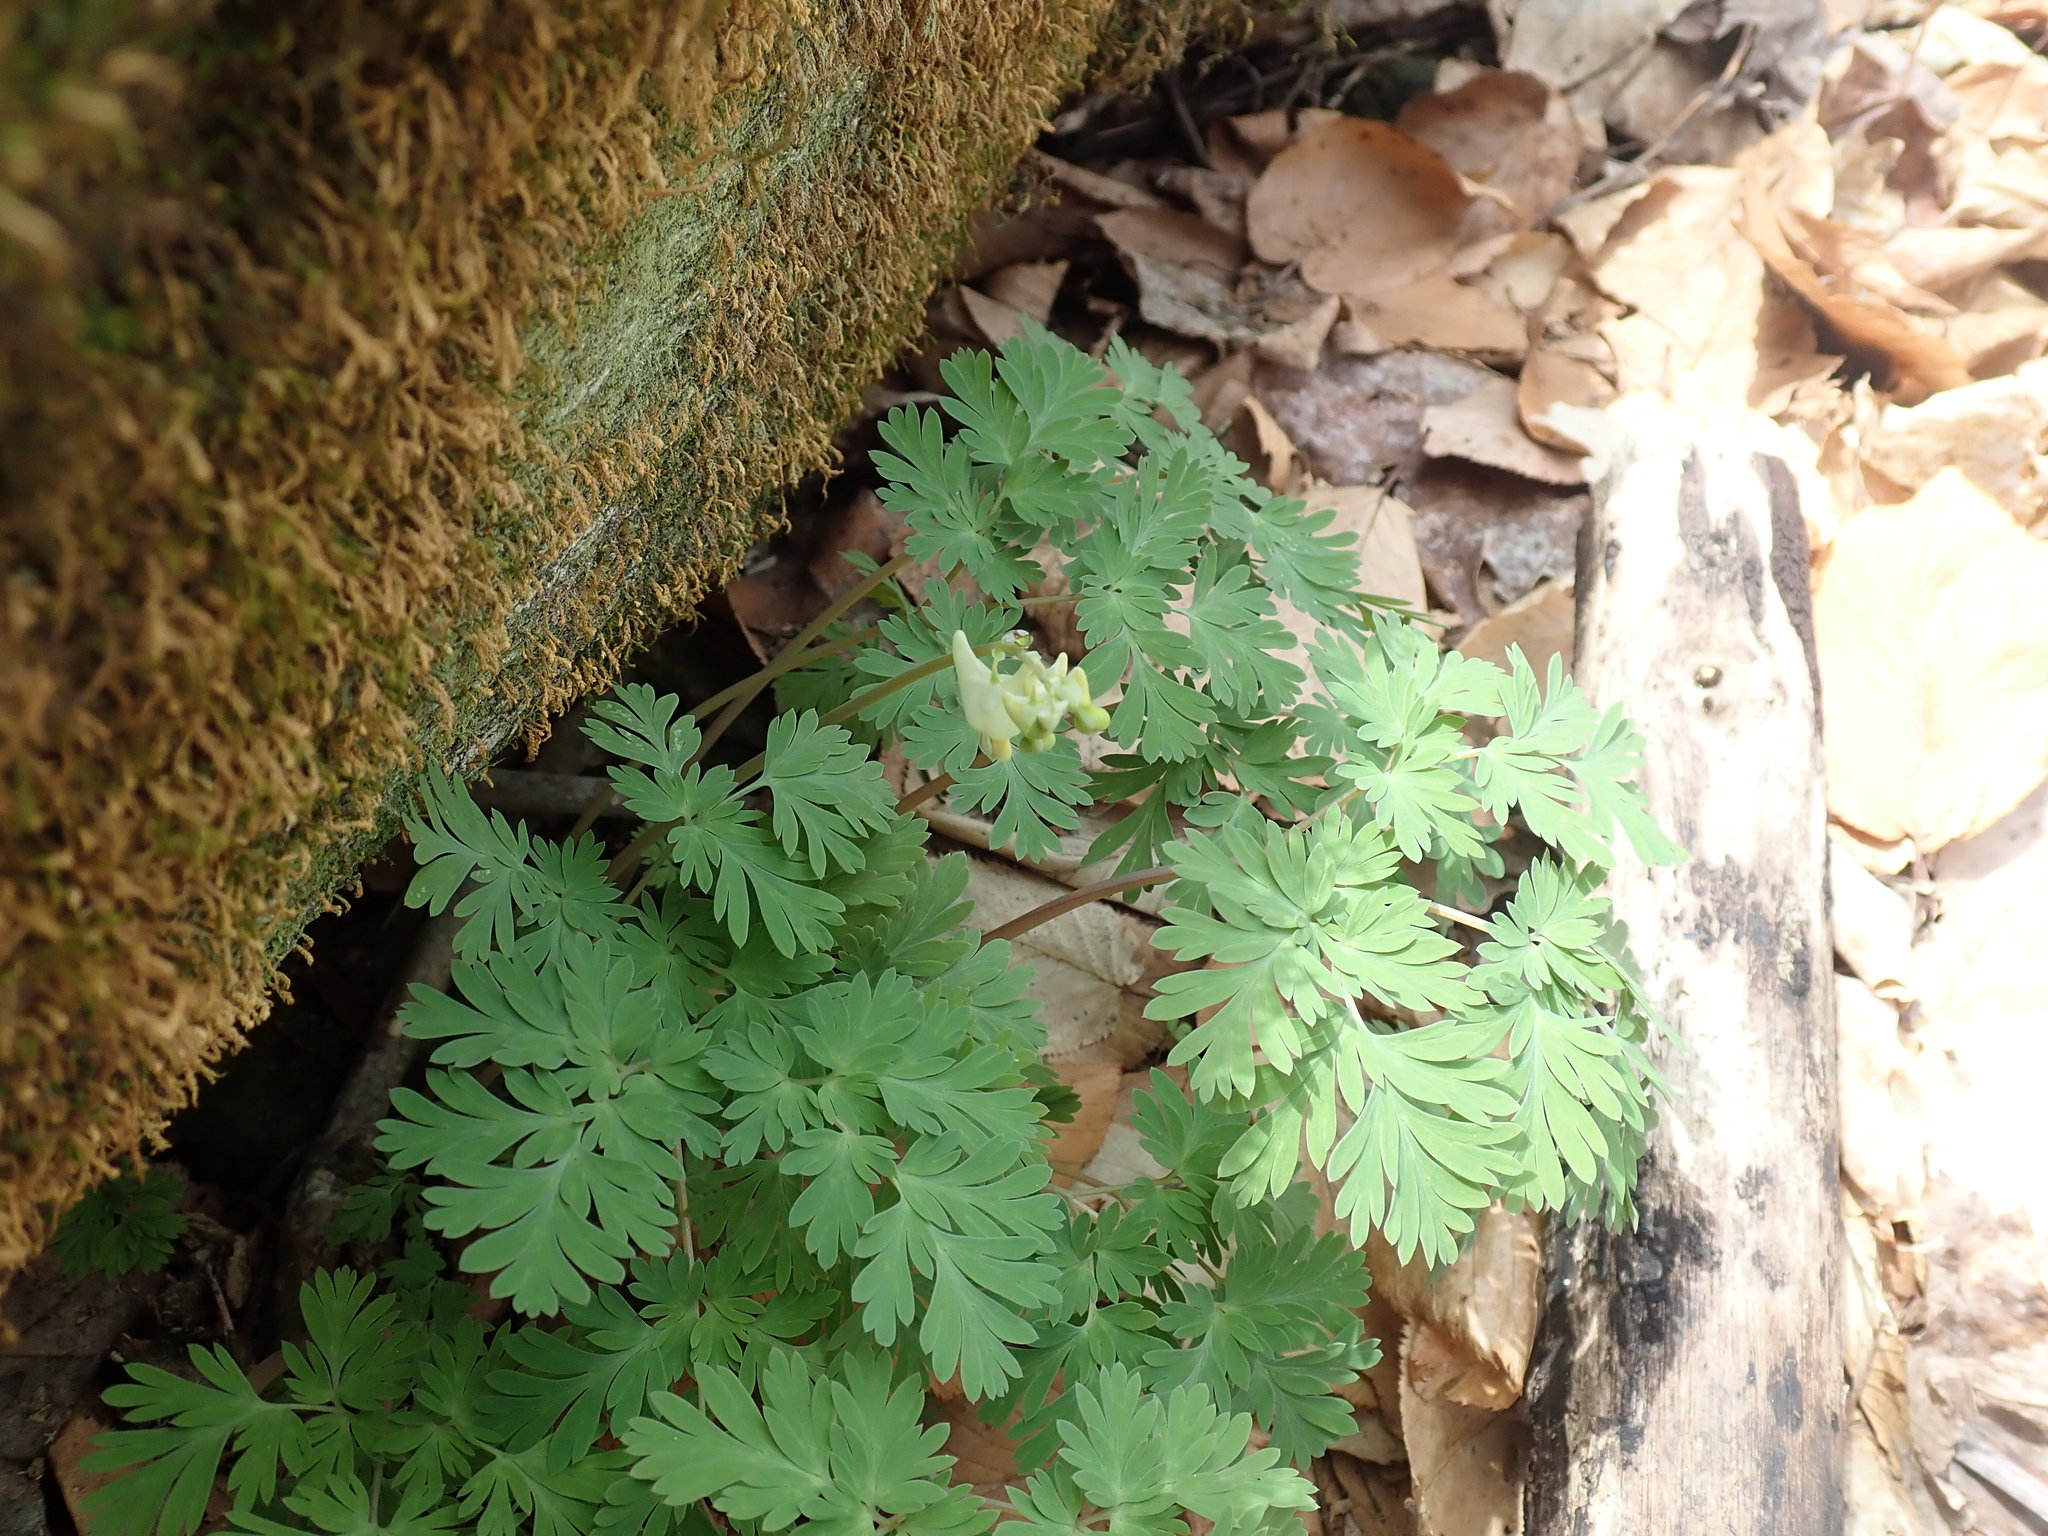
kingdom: Plantae
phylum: Tracheophyta
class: Magnoliopsida
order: Ranunculales
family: Papaveraceae
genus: Dicentra
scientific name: Dicentra cucullaria
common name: Dutchman's breeches
